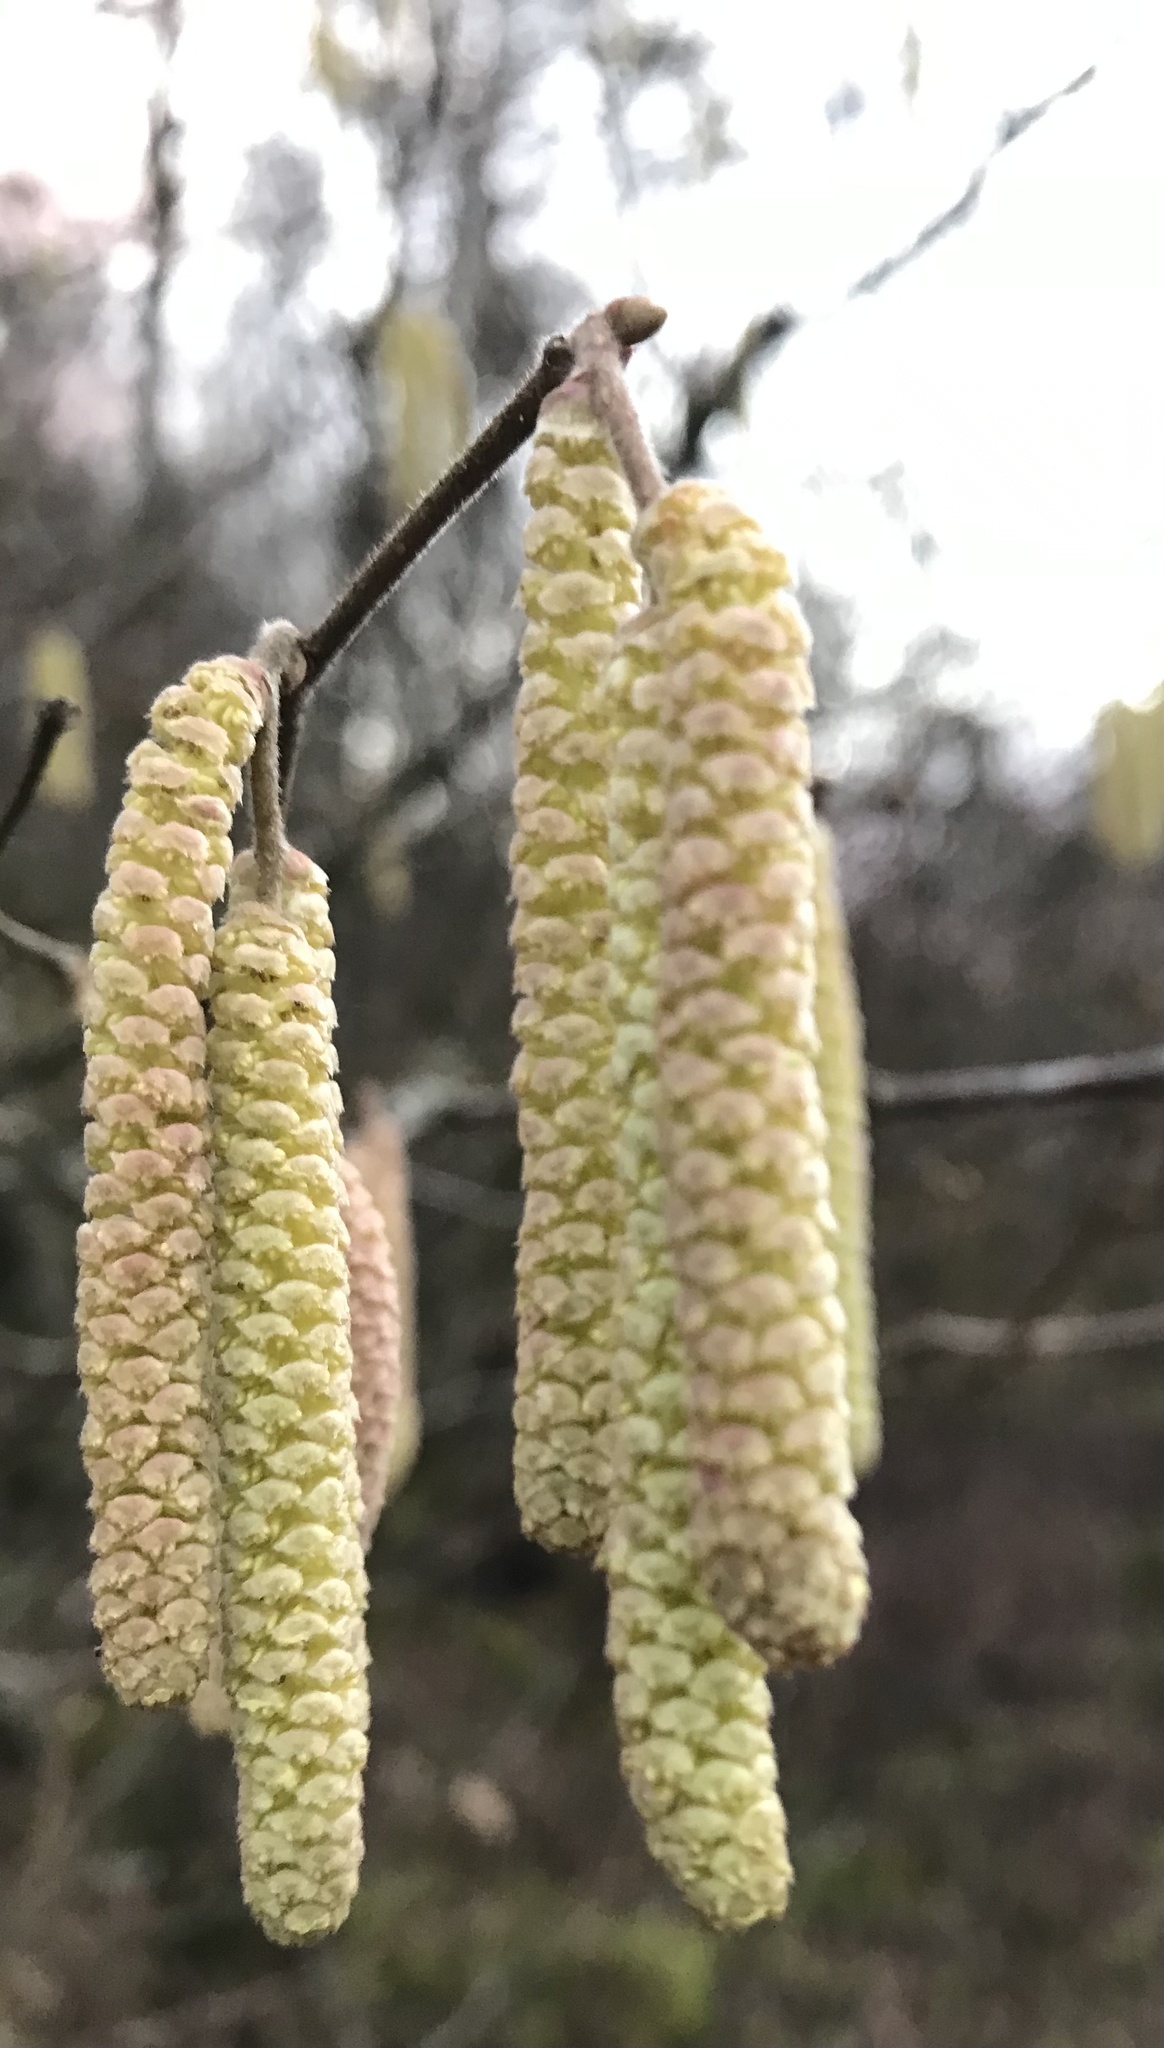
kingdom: Plantae
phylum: Tracheophyta
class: Magnoliopsida
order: Fagales
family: Betulaceae
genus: Corylus
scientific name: Corylus avellana
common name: European hazel
